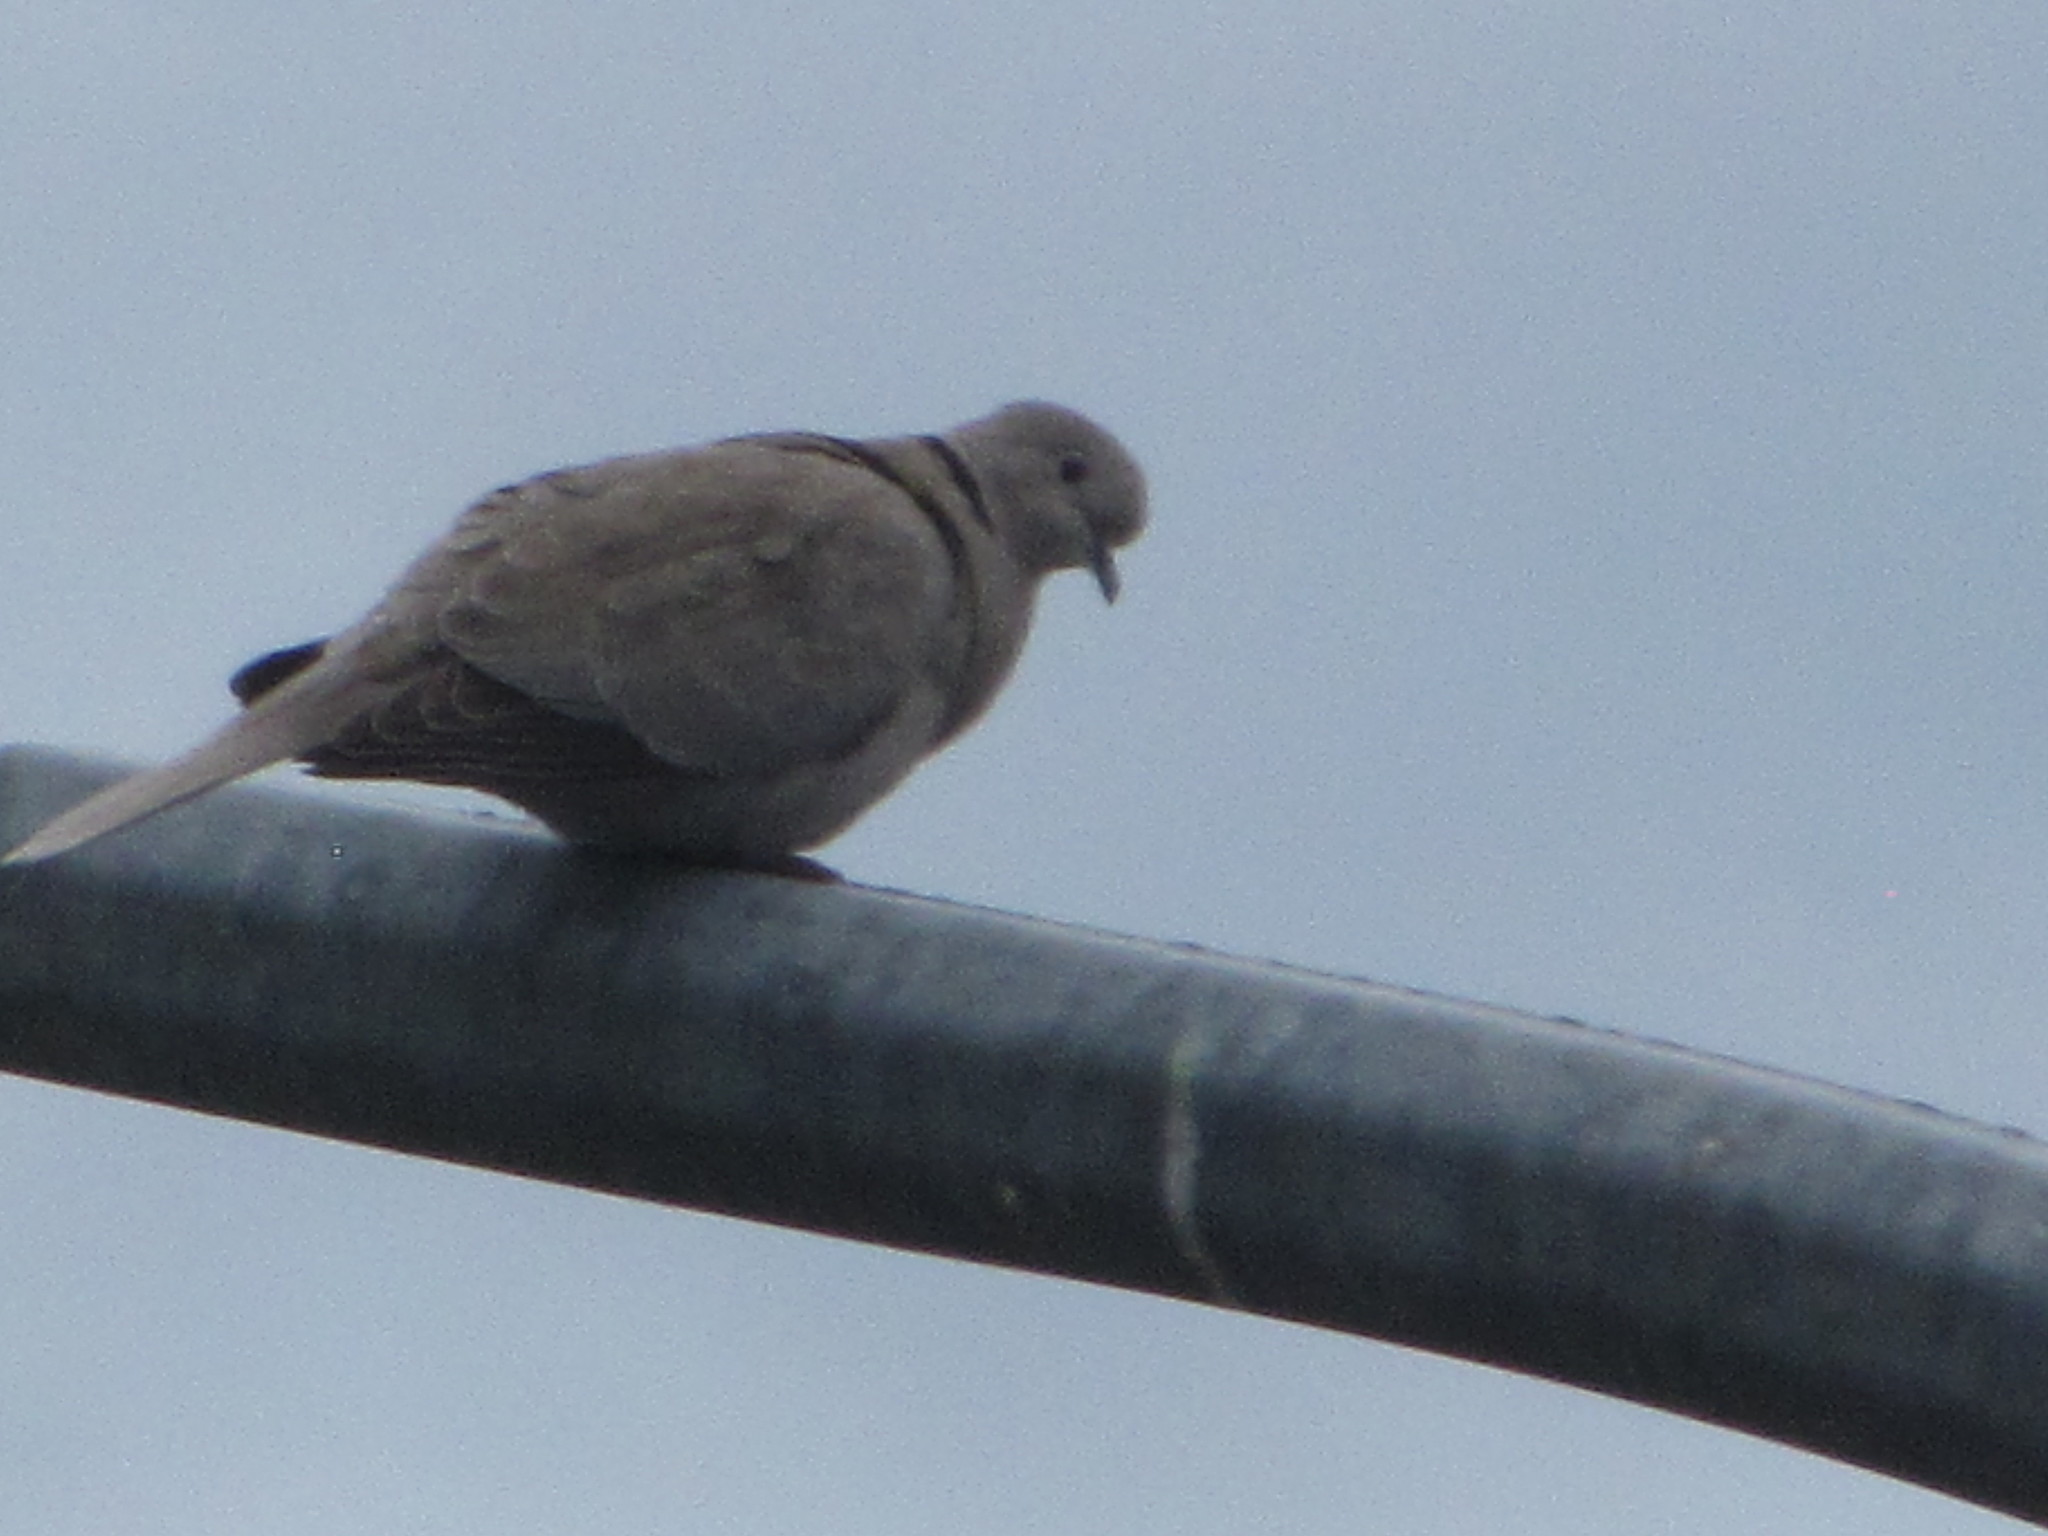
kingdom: Animalia
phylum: Chordata
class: Aves
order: Columbiformes
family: Columbidae
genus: Streptopelia
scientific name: Streptopelia decaocto
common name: Eurasian collared dove
